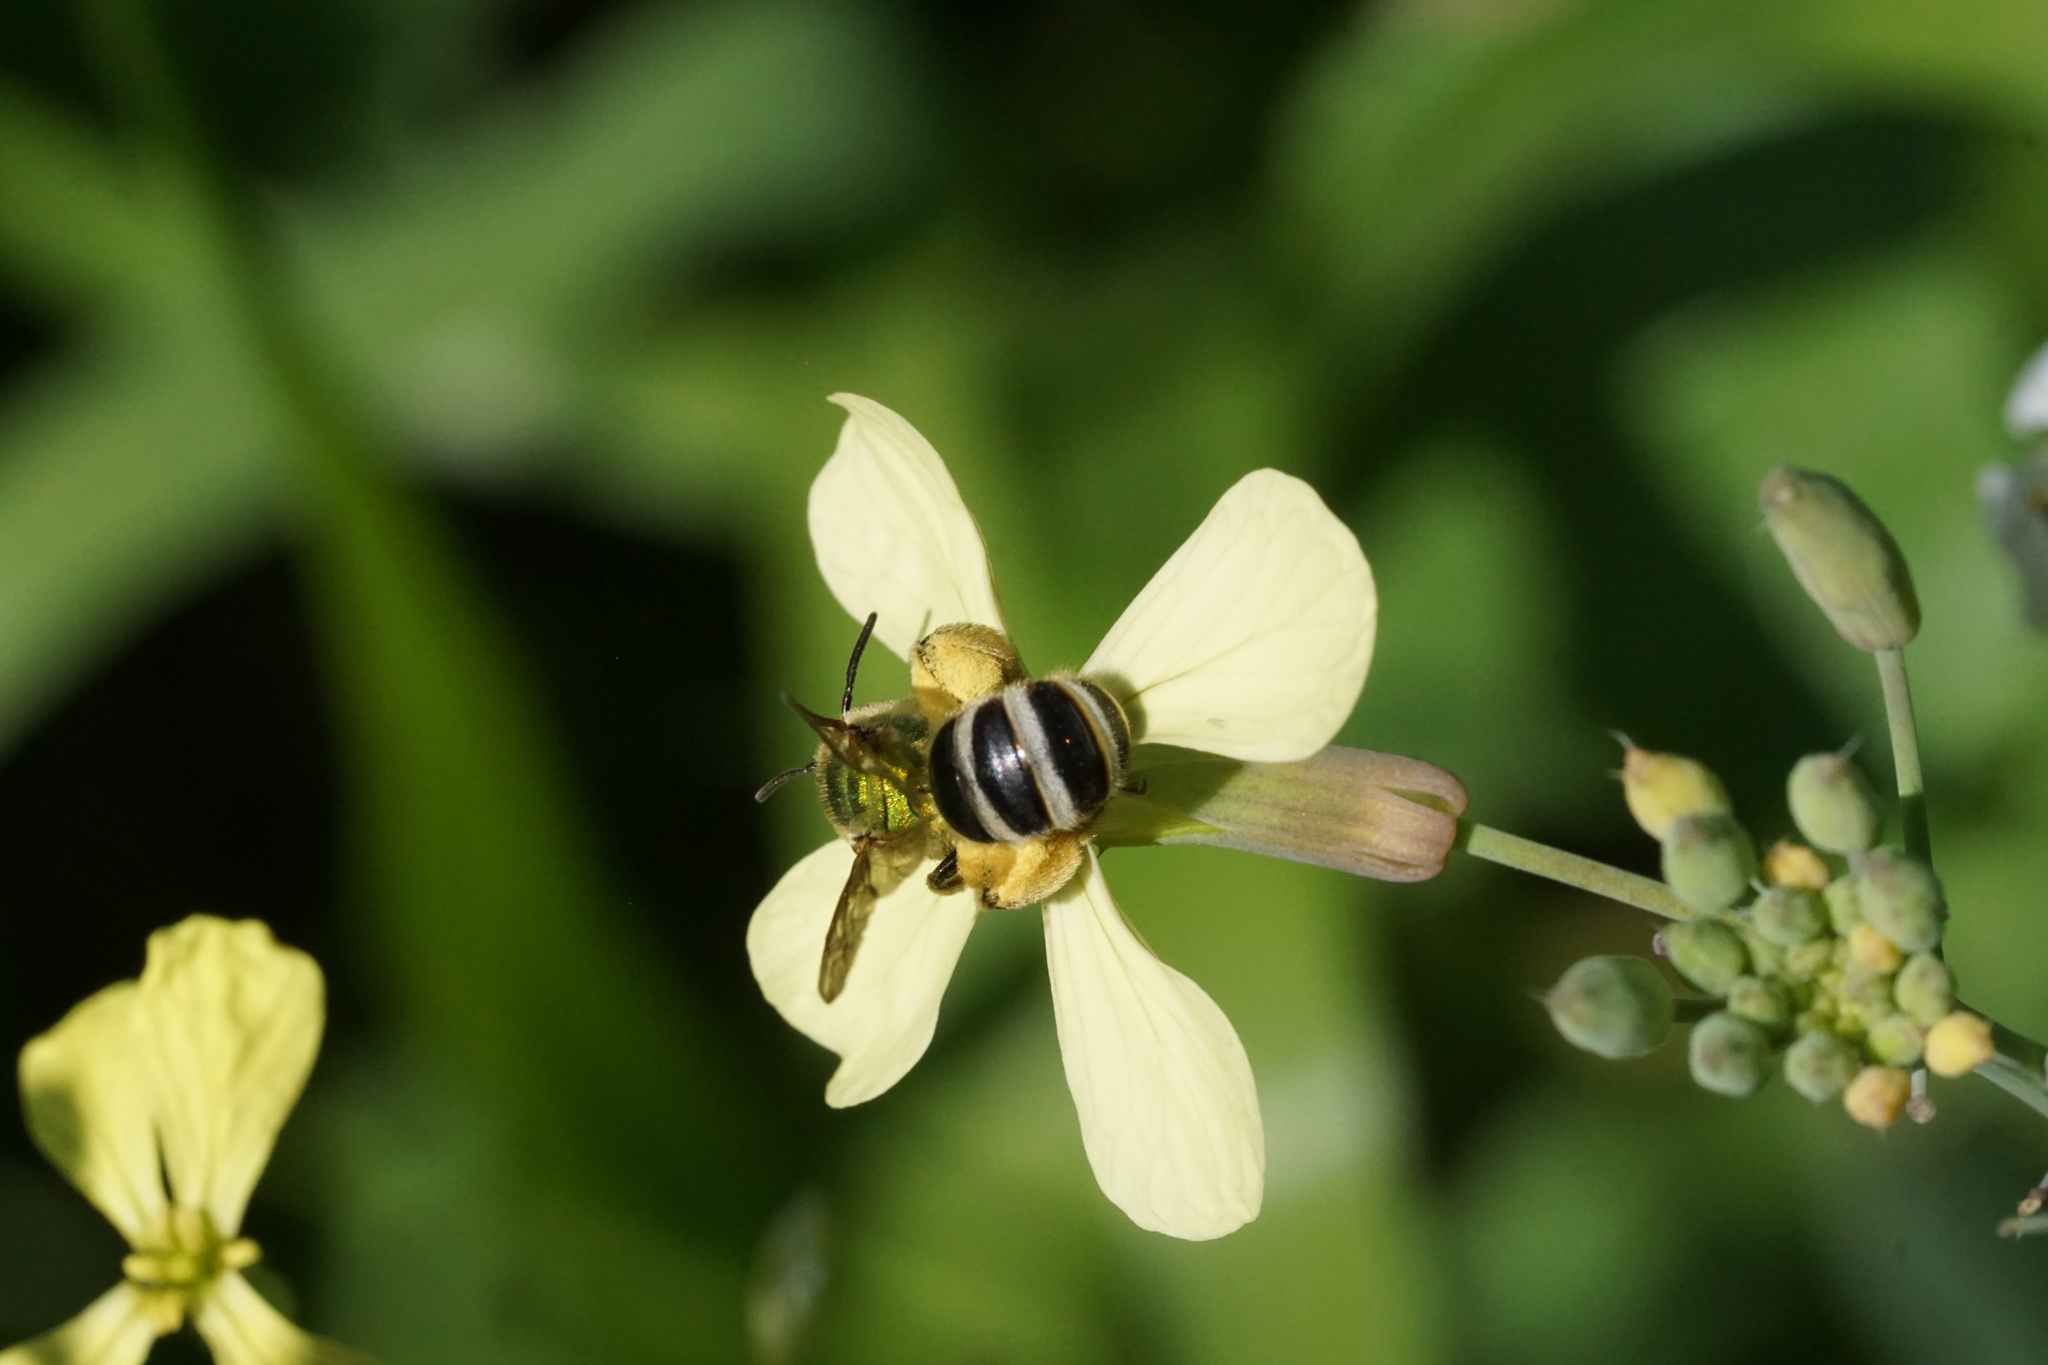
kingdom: Animalia
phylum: Arthropoda
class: Insecta
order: Hymenoptera
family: Halictidae
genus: Agapostemon
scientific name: Agapostemon virescens
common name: Bicolored striped sweat bee
